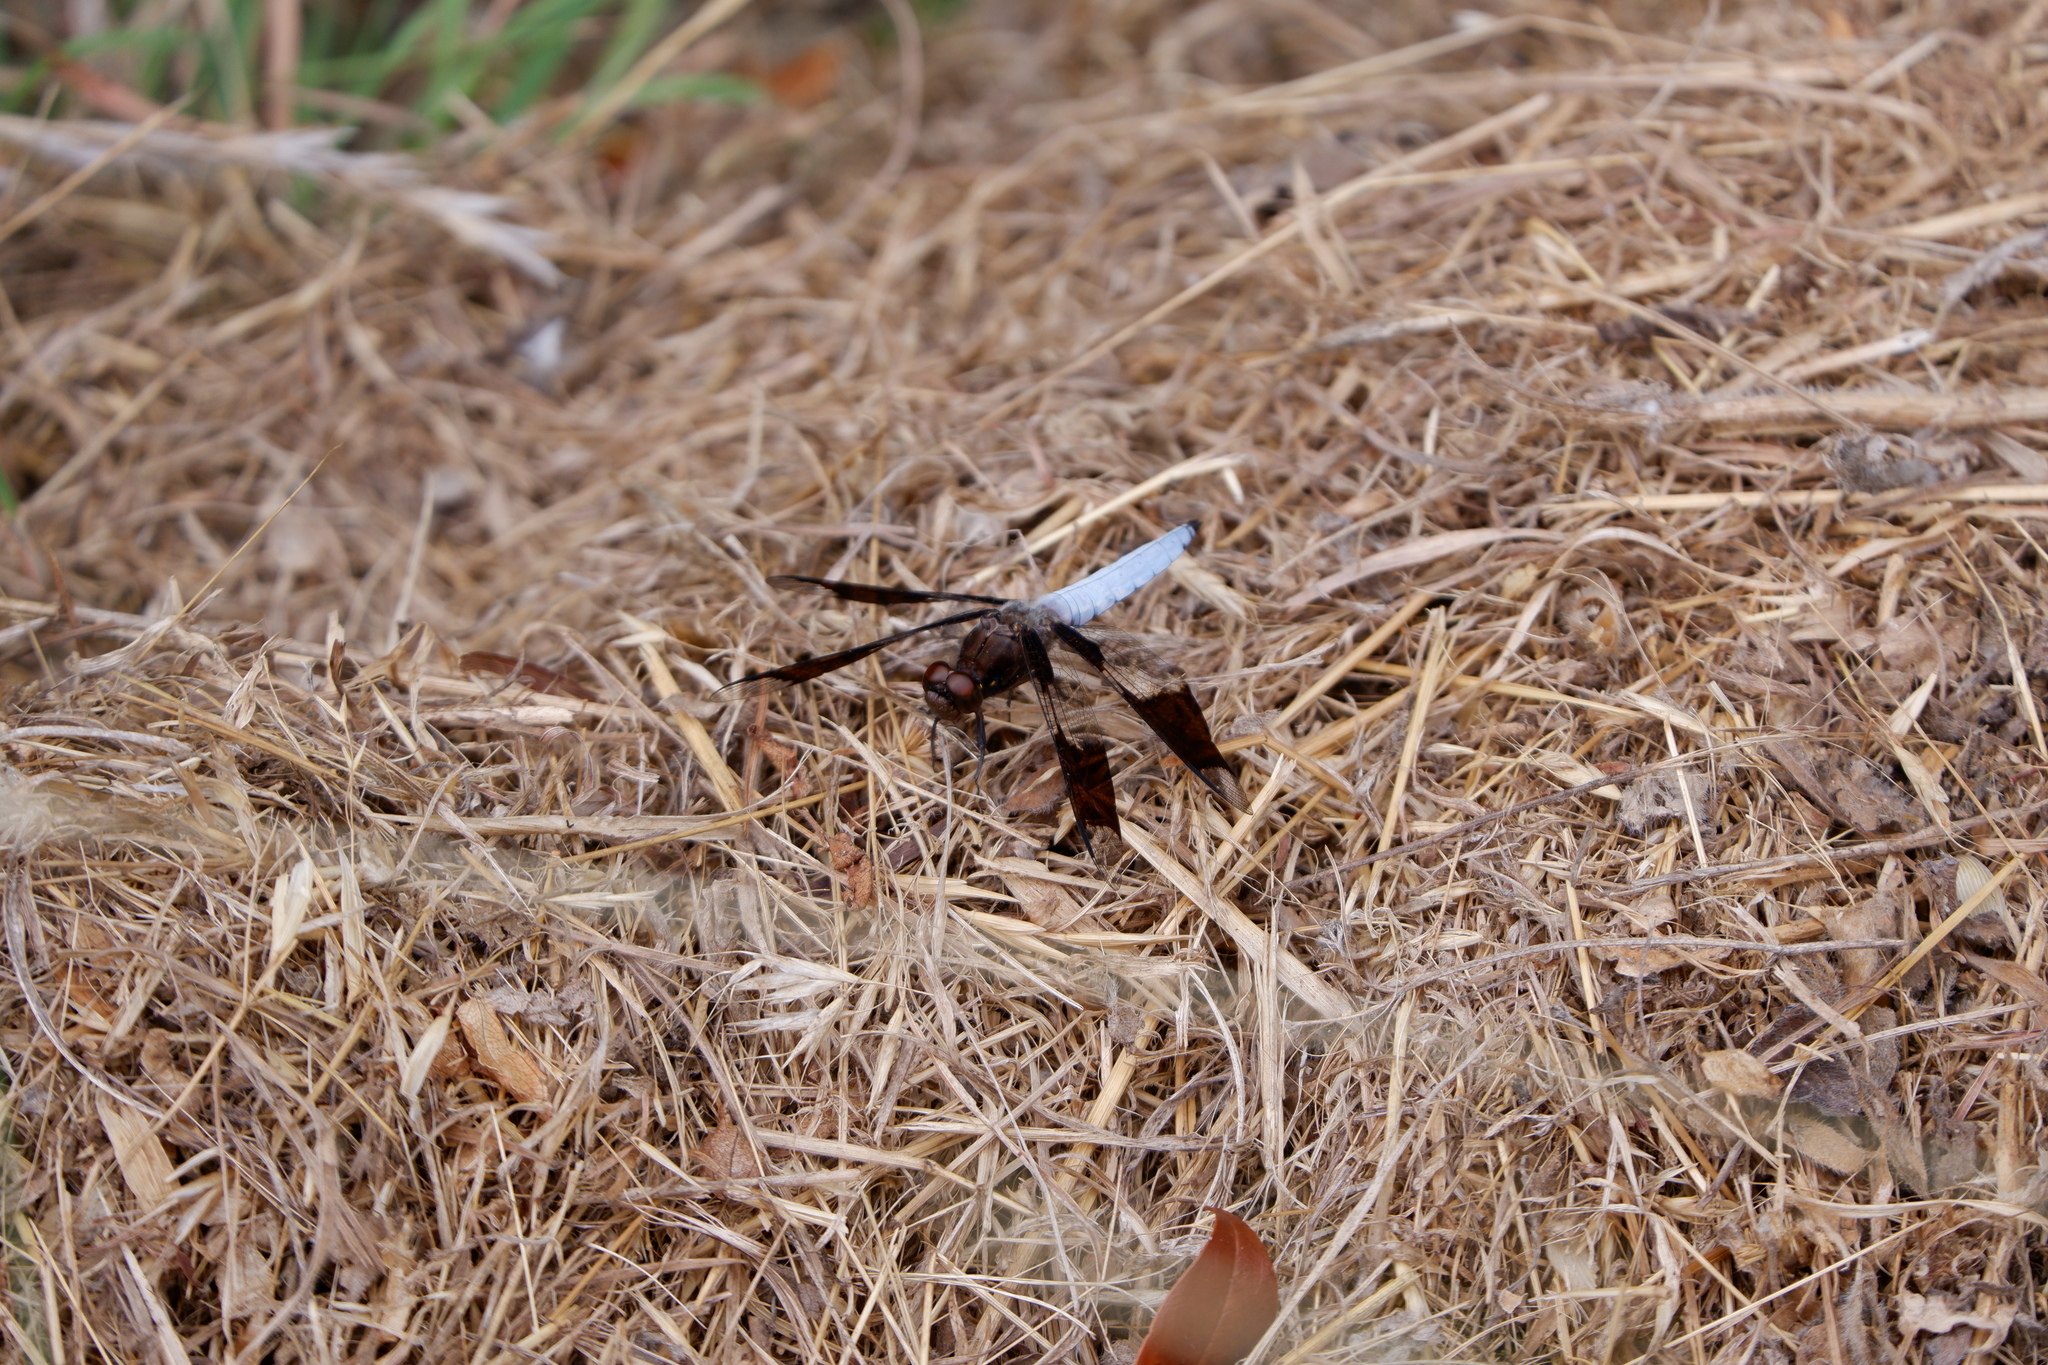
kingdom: Animalia
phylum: Arthropoda
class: Insecta
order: Odonata
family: Libellulidae
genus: Plathemis
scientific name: Plathemis lydia
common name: Common whitetail
